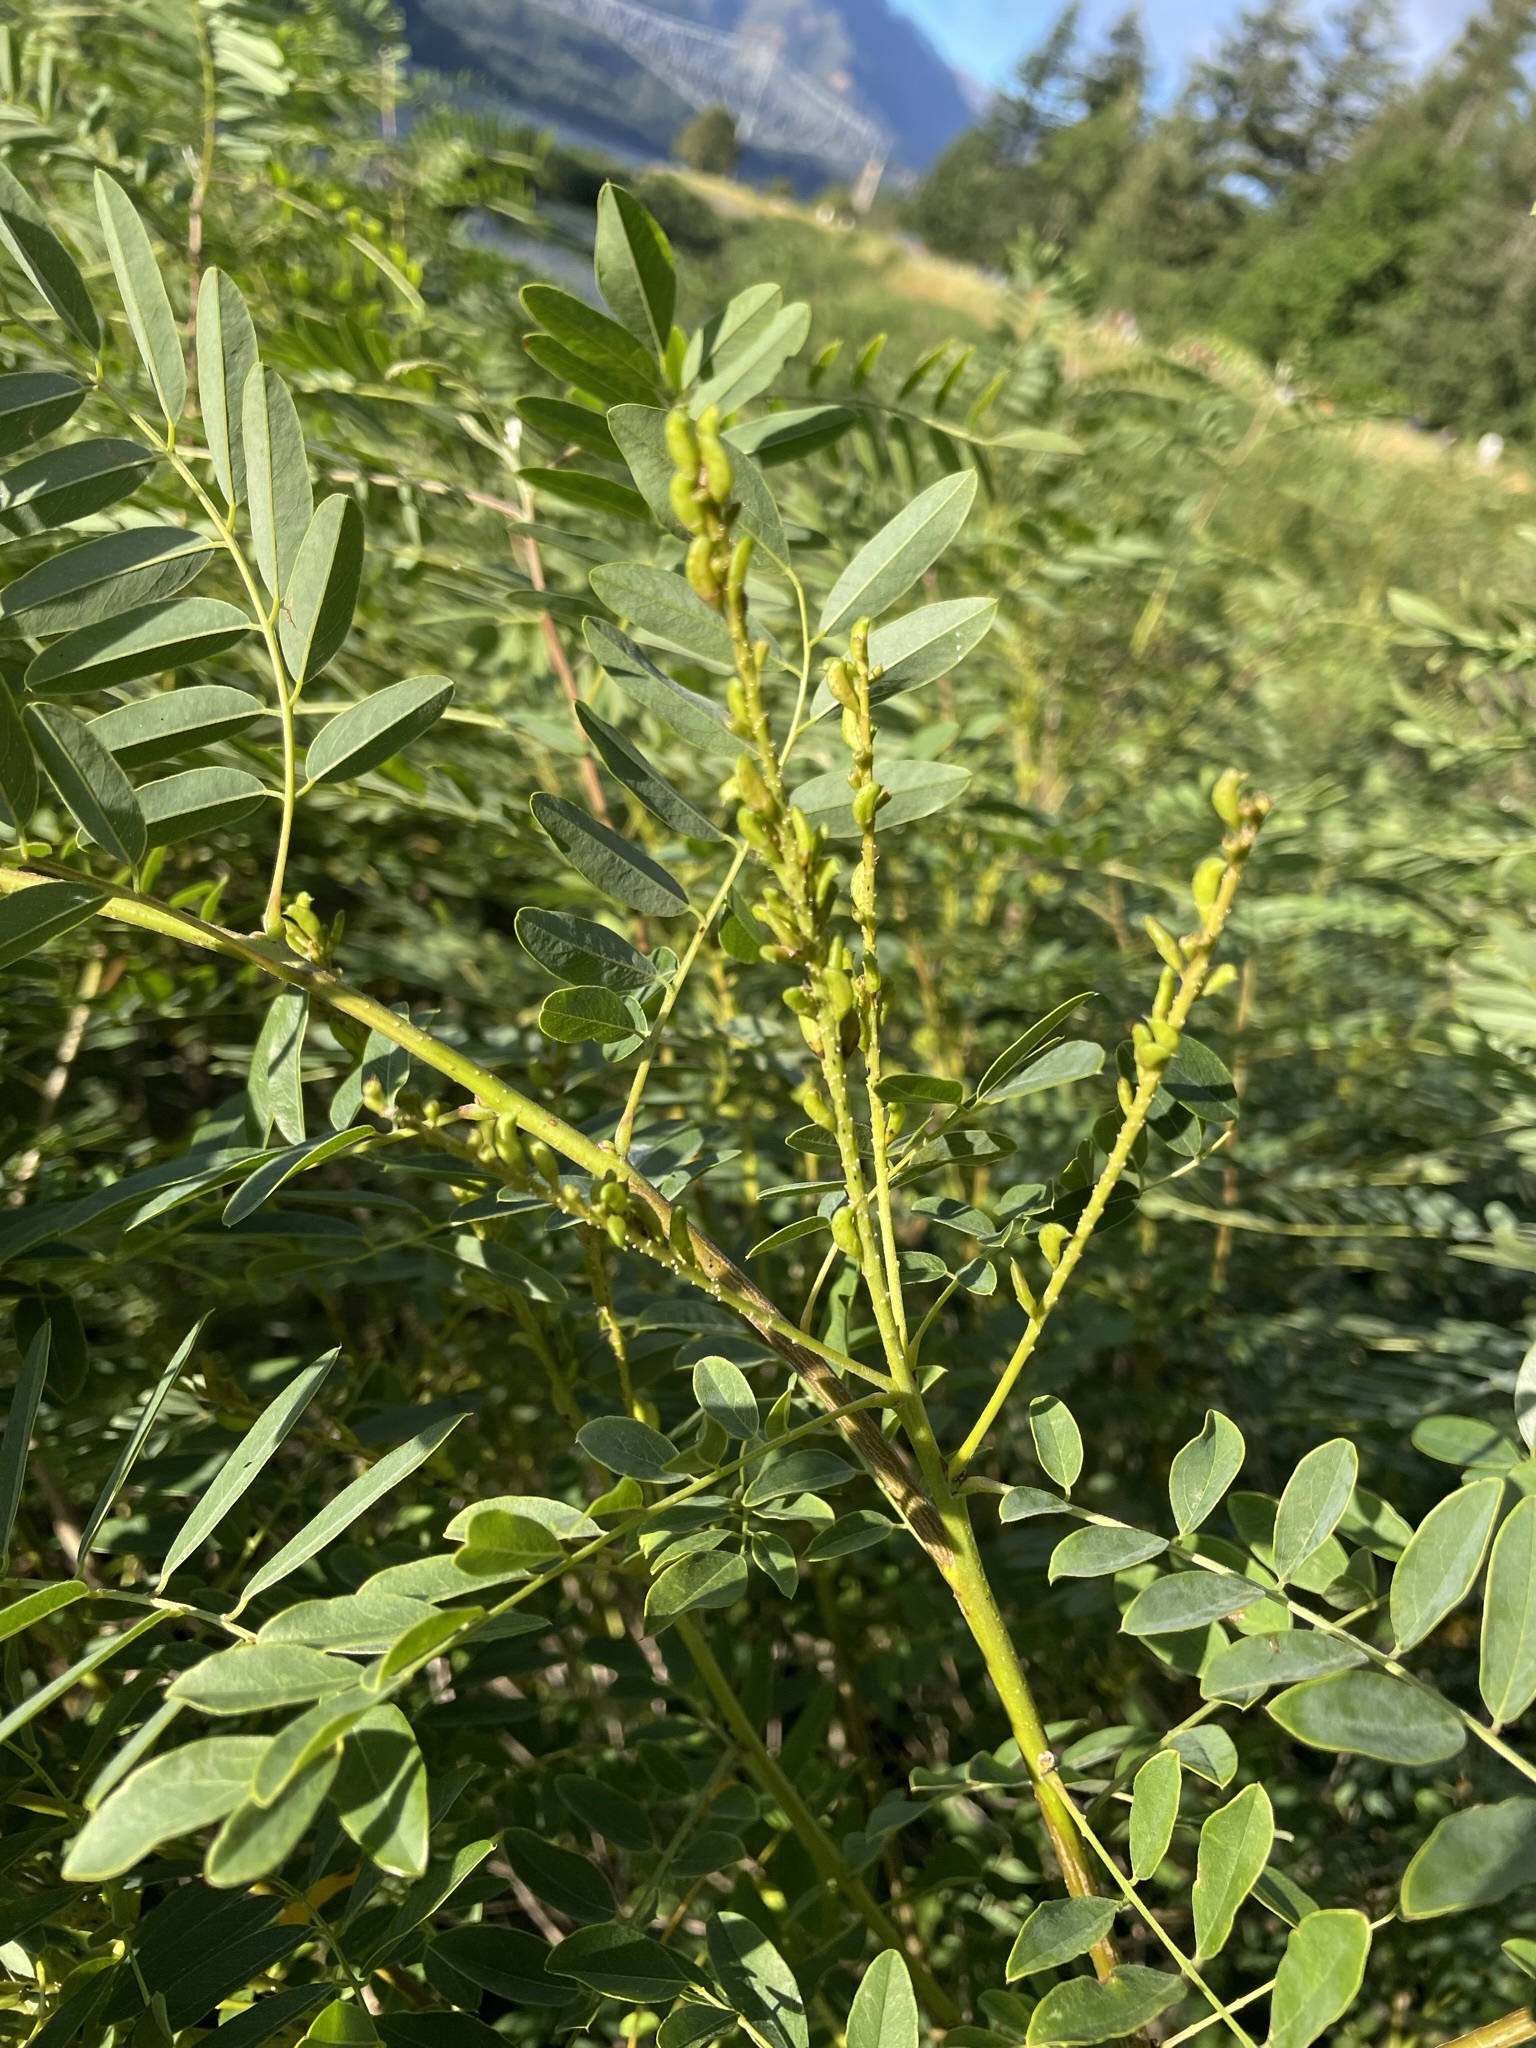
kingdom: Plantae
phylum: Tracheophyta
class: Magnoliopsida
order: Fabales
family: Fabaceae
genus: Amorpha
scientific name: Amorpha fruticosa
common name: False indigo
